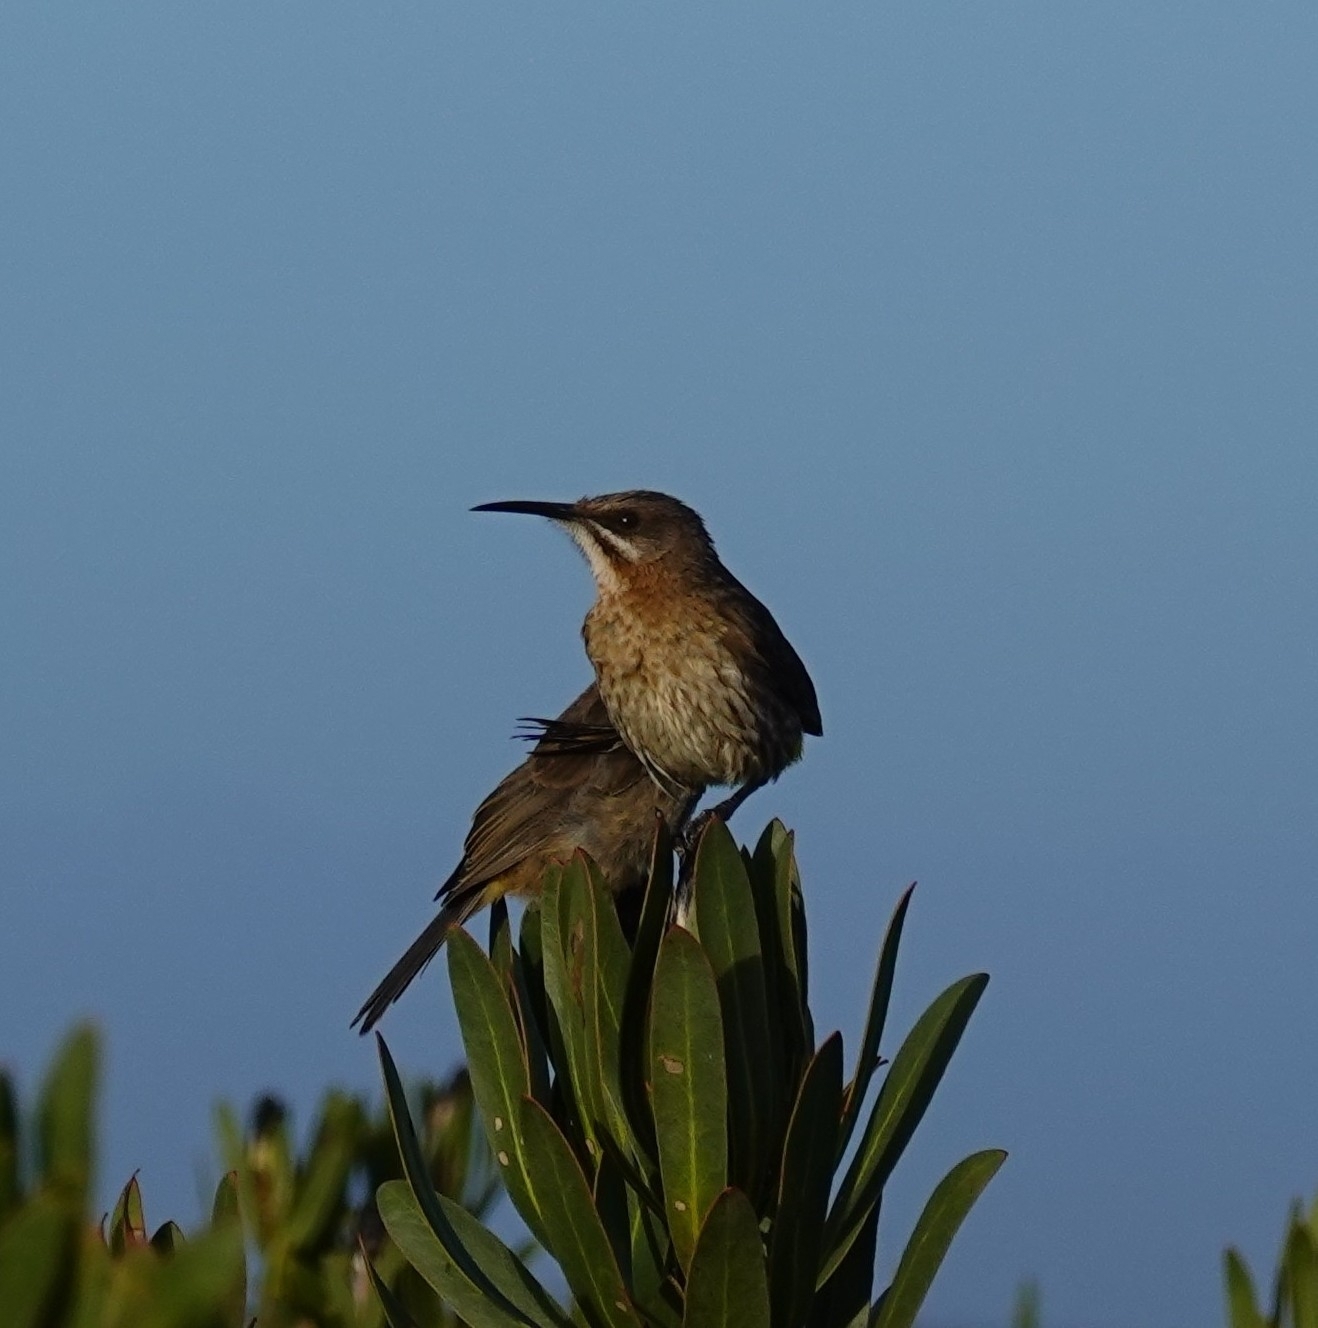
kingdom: Animalia
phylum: Chordata
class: Aves
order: Passeriformes
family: Promeropidae
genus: Promerops
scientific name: Promerops cafer
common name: Cape sugarbird
